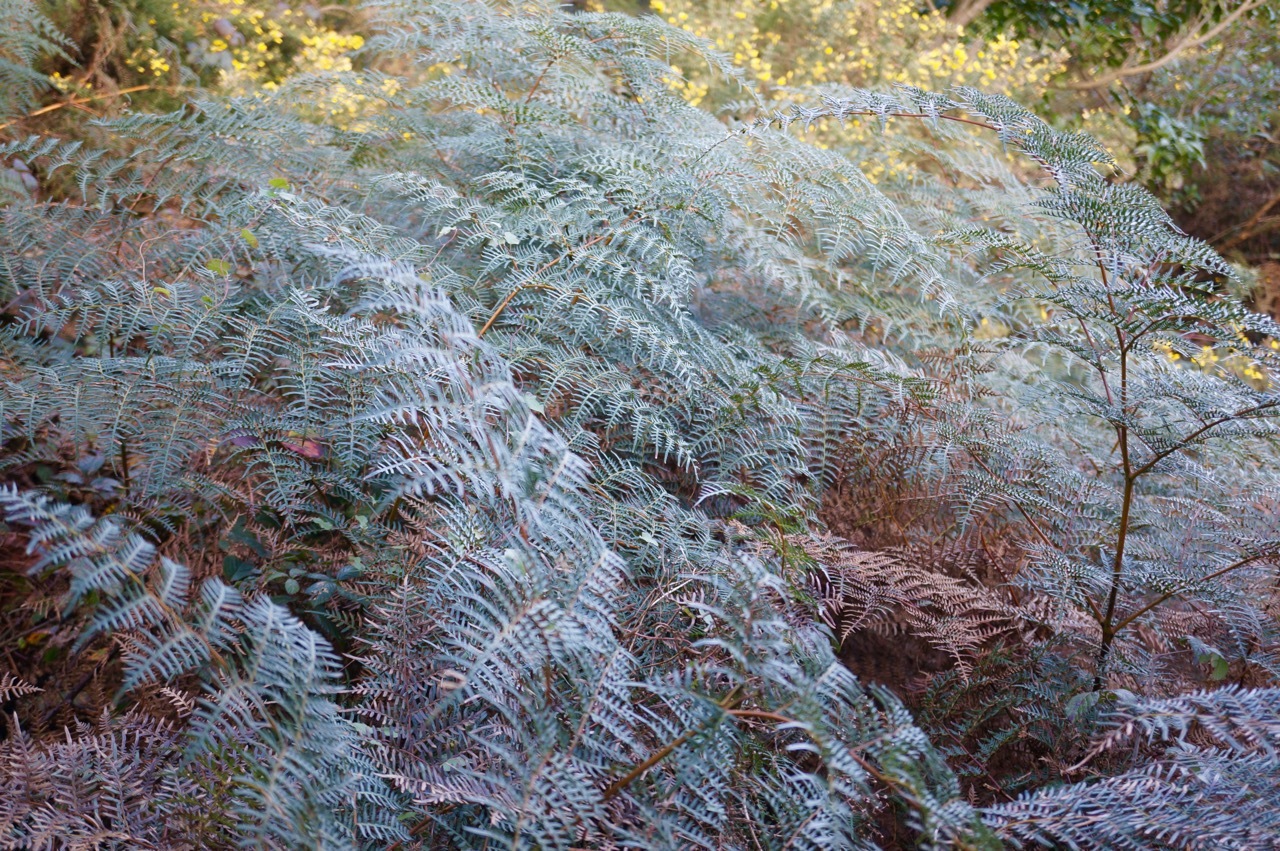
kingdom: Plantae
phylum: Tracheophyta
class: Polypodiopsida
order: Polypodiales
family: Dennstaedtiaceae
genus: Pteridium
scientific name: Pteridium esculentum
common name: Bracken fern
